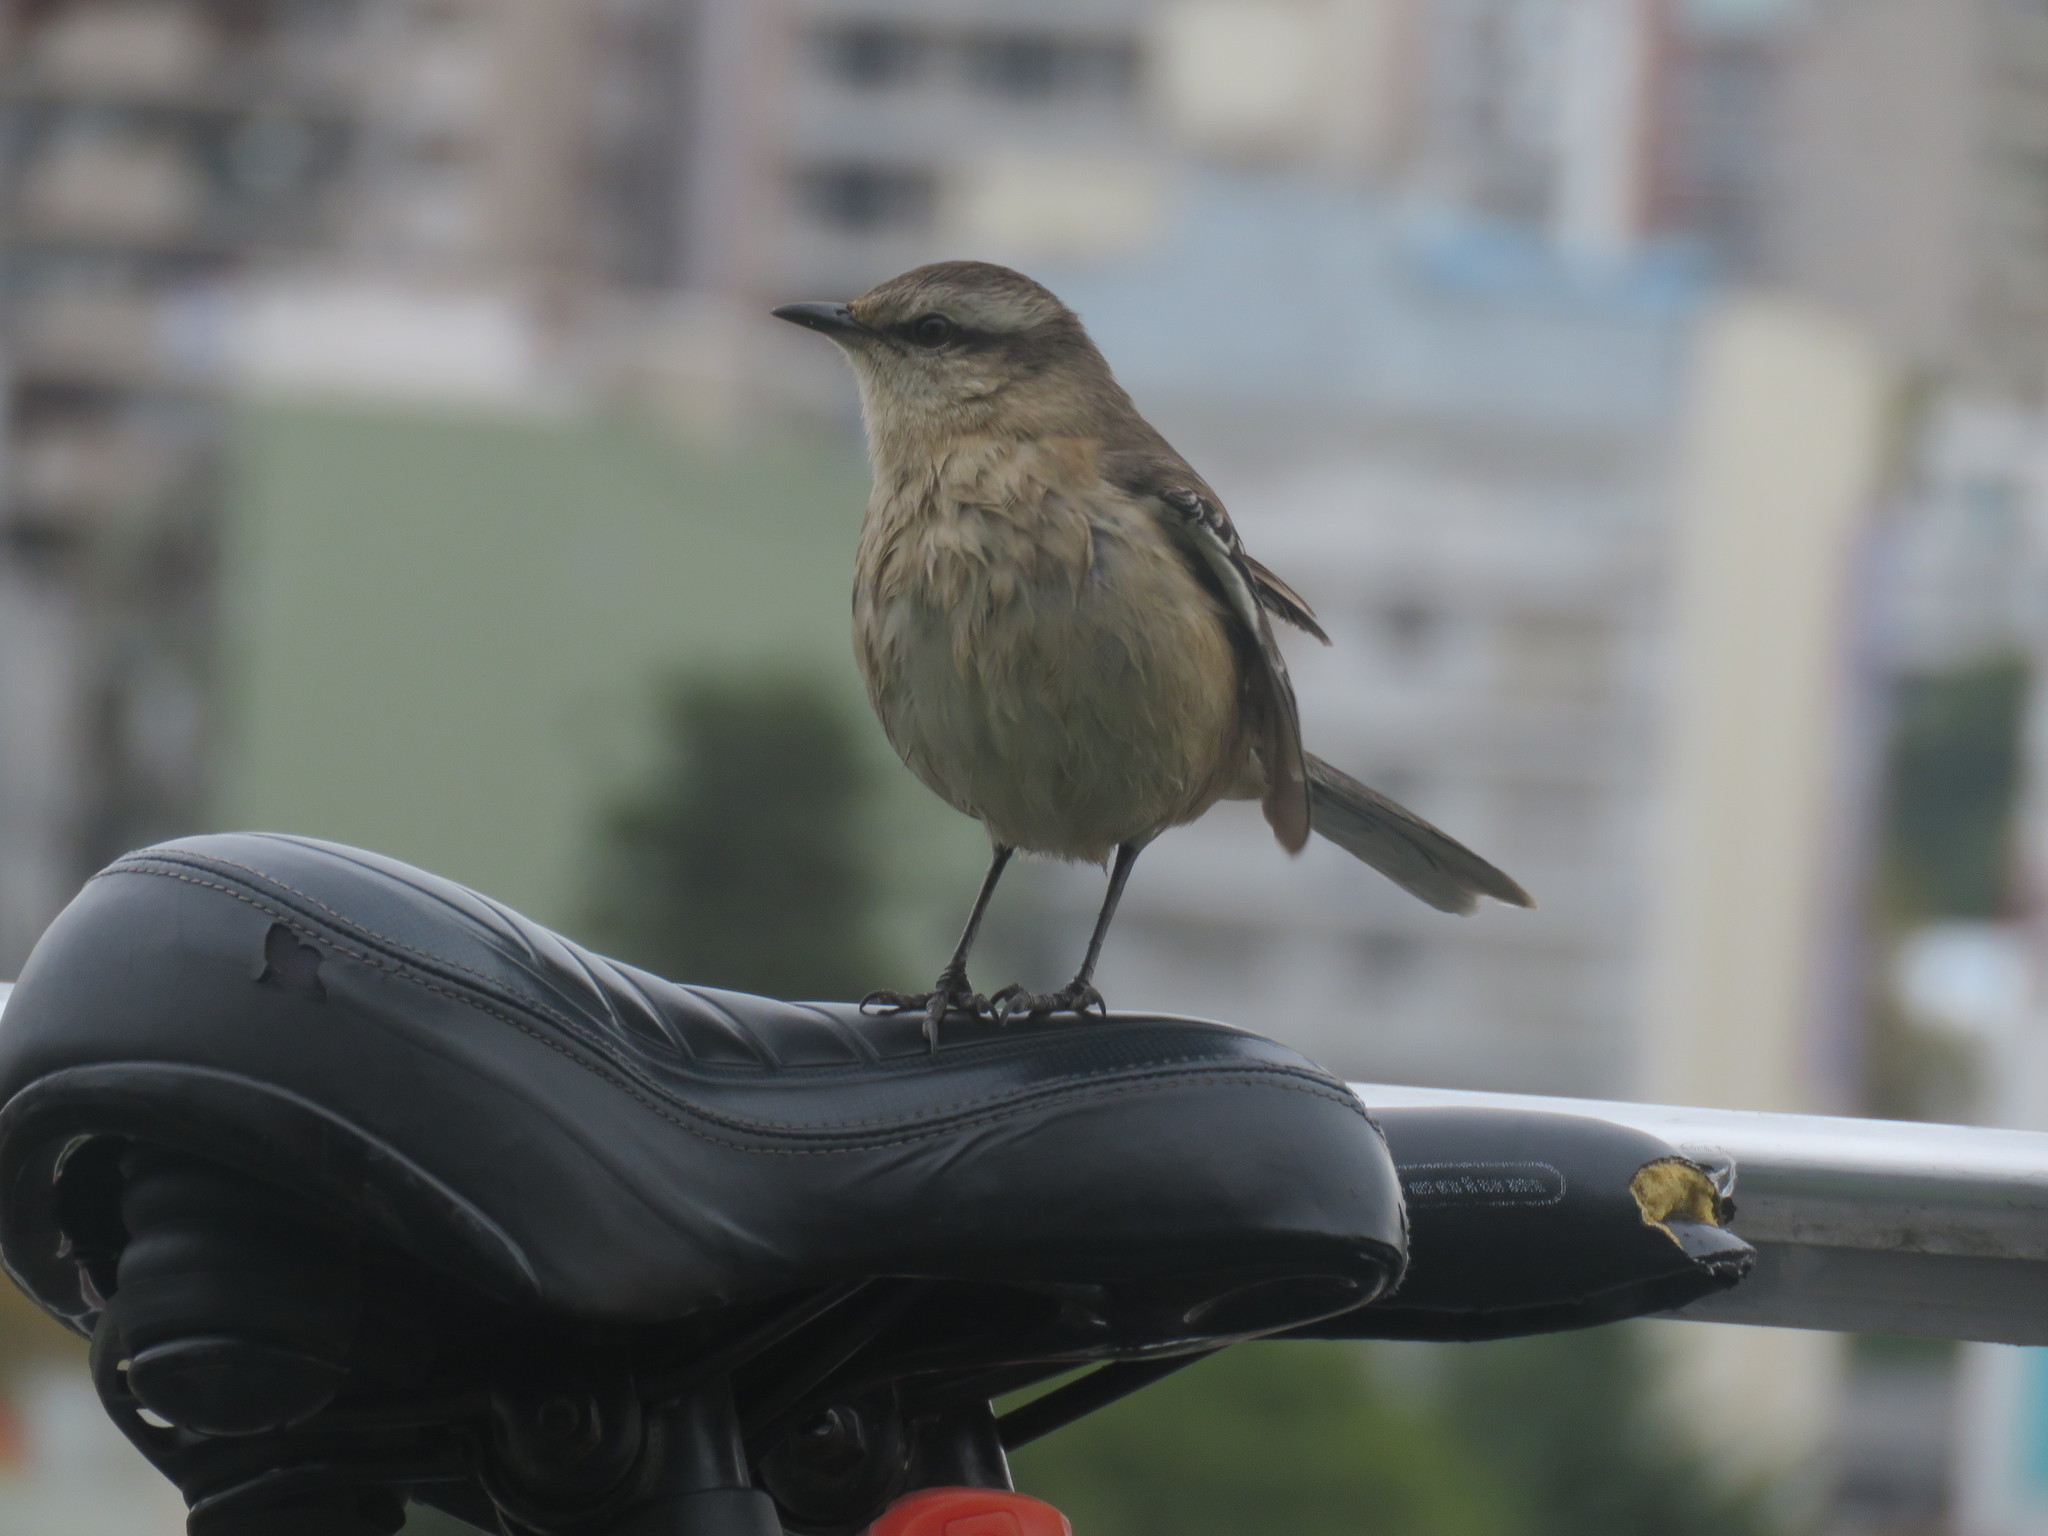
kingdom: Animalia
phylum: Chordata
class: Aves
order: Passeriformes
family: Mimidae
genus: Mimus
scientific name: Mimus saturninus
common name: Chalk-browed mockingbird
